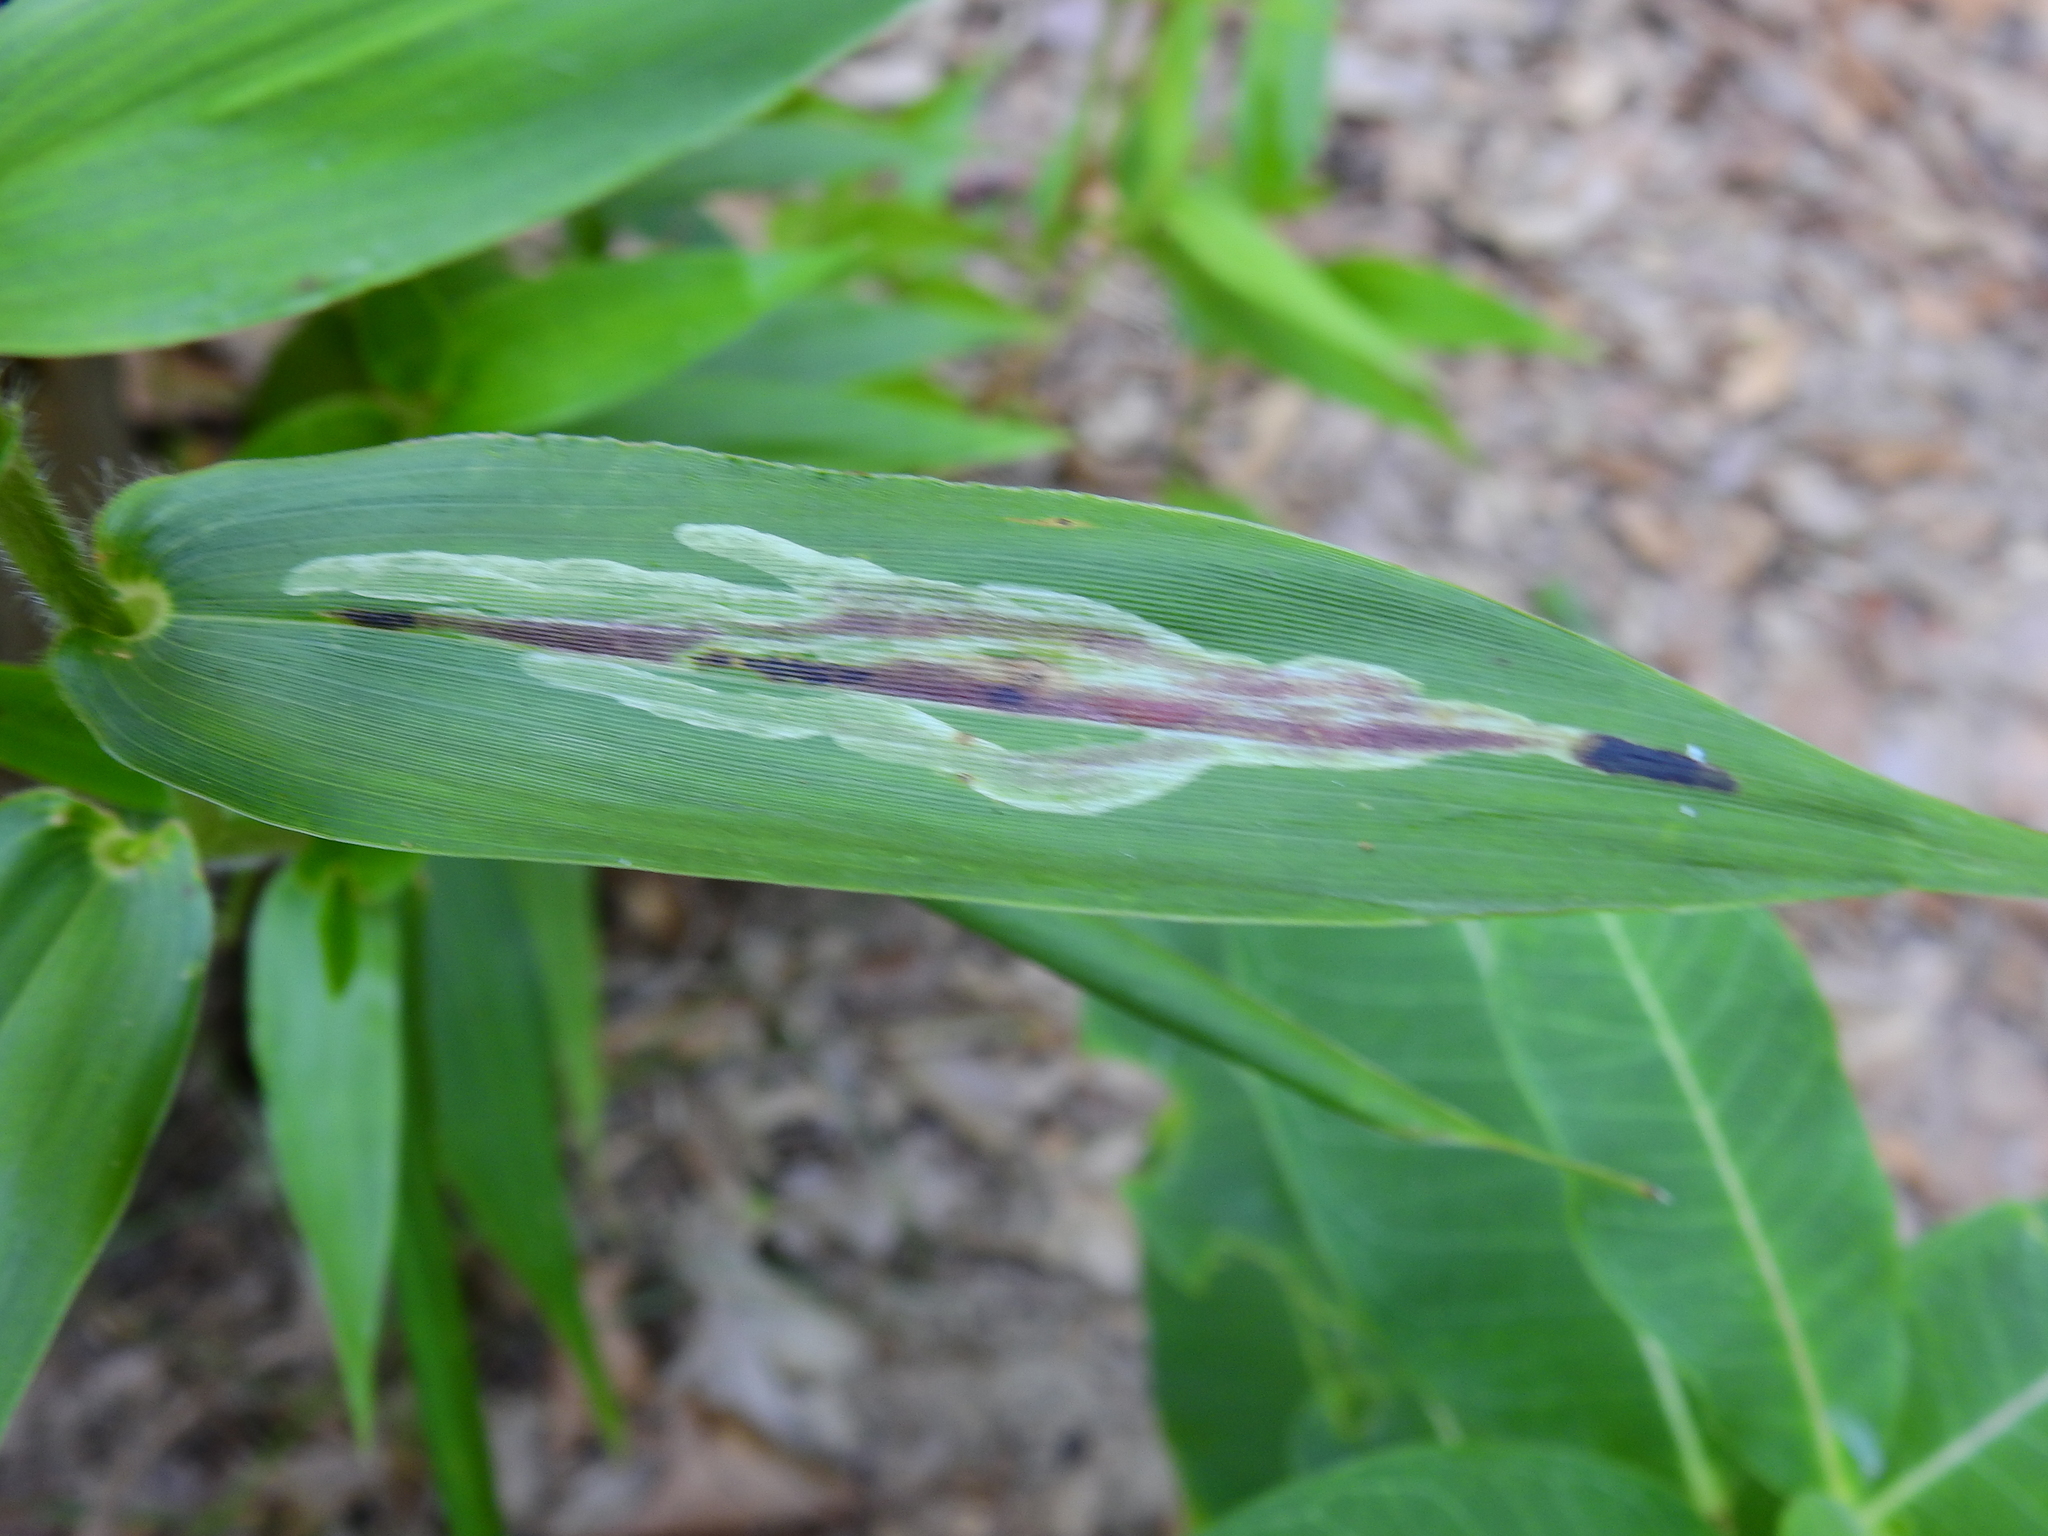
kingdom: Animalia
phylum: Arthropoda
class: Insecta
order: Diptera
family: Agromyzidae
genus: Cerodontha
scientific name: Cerodontha angulata
